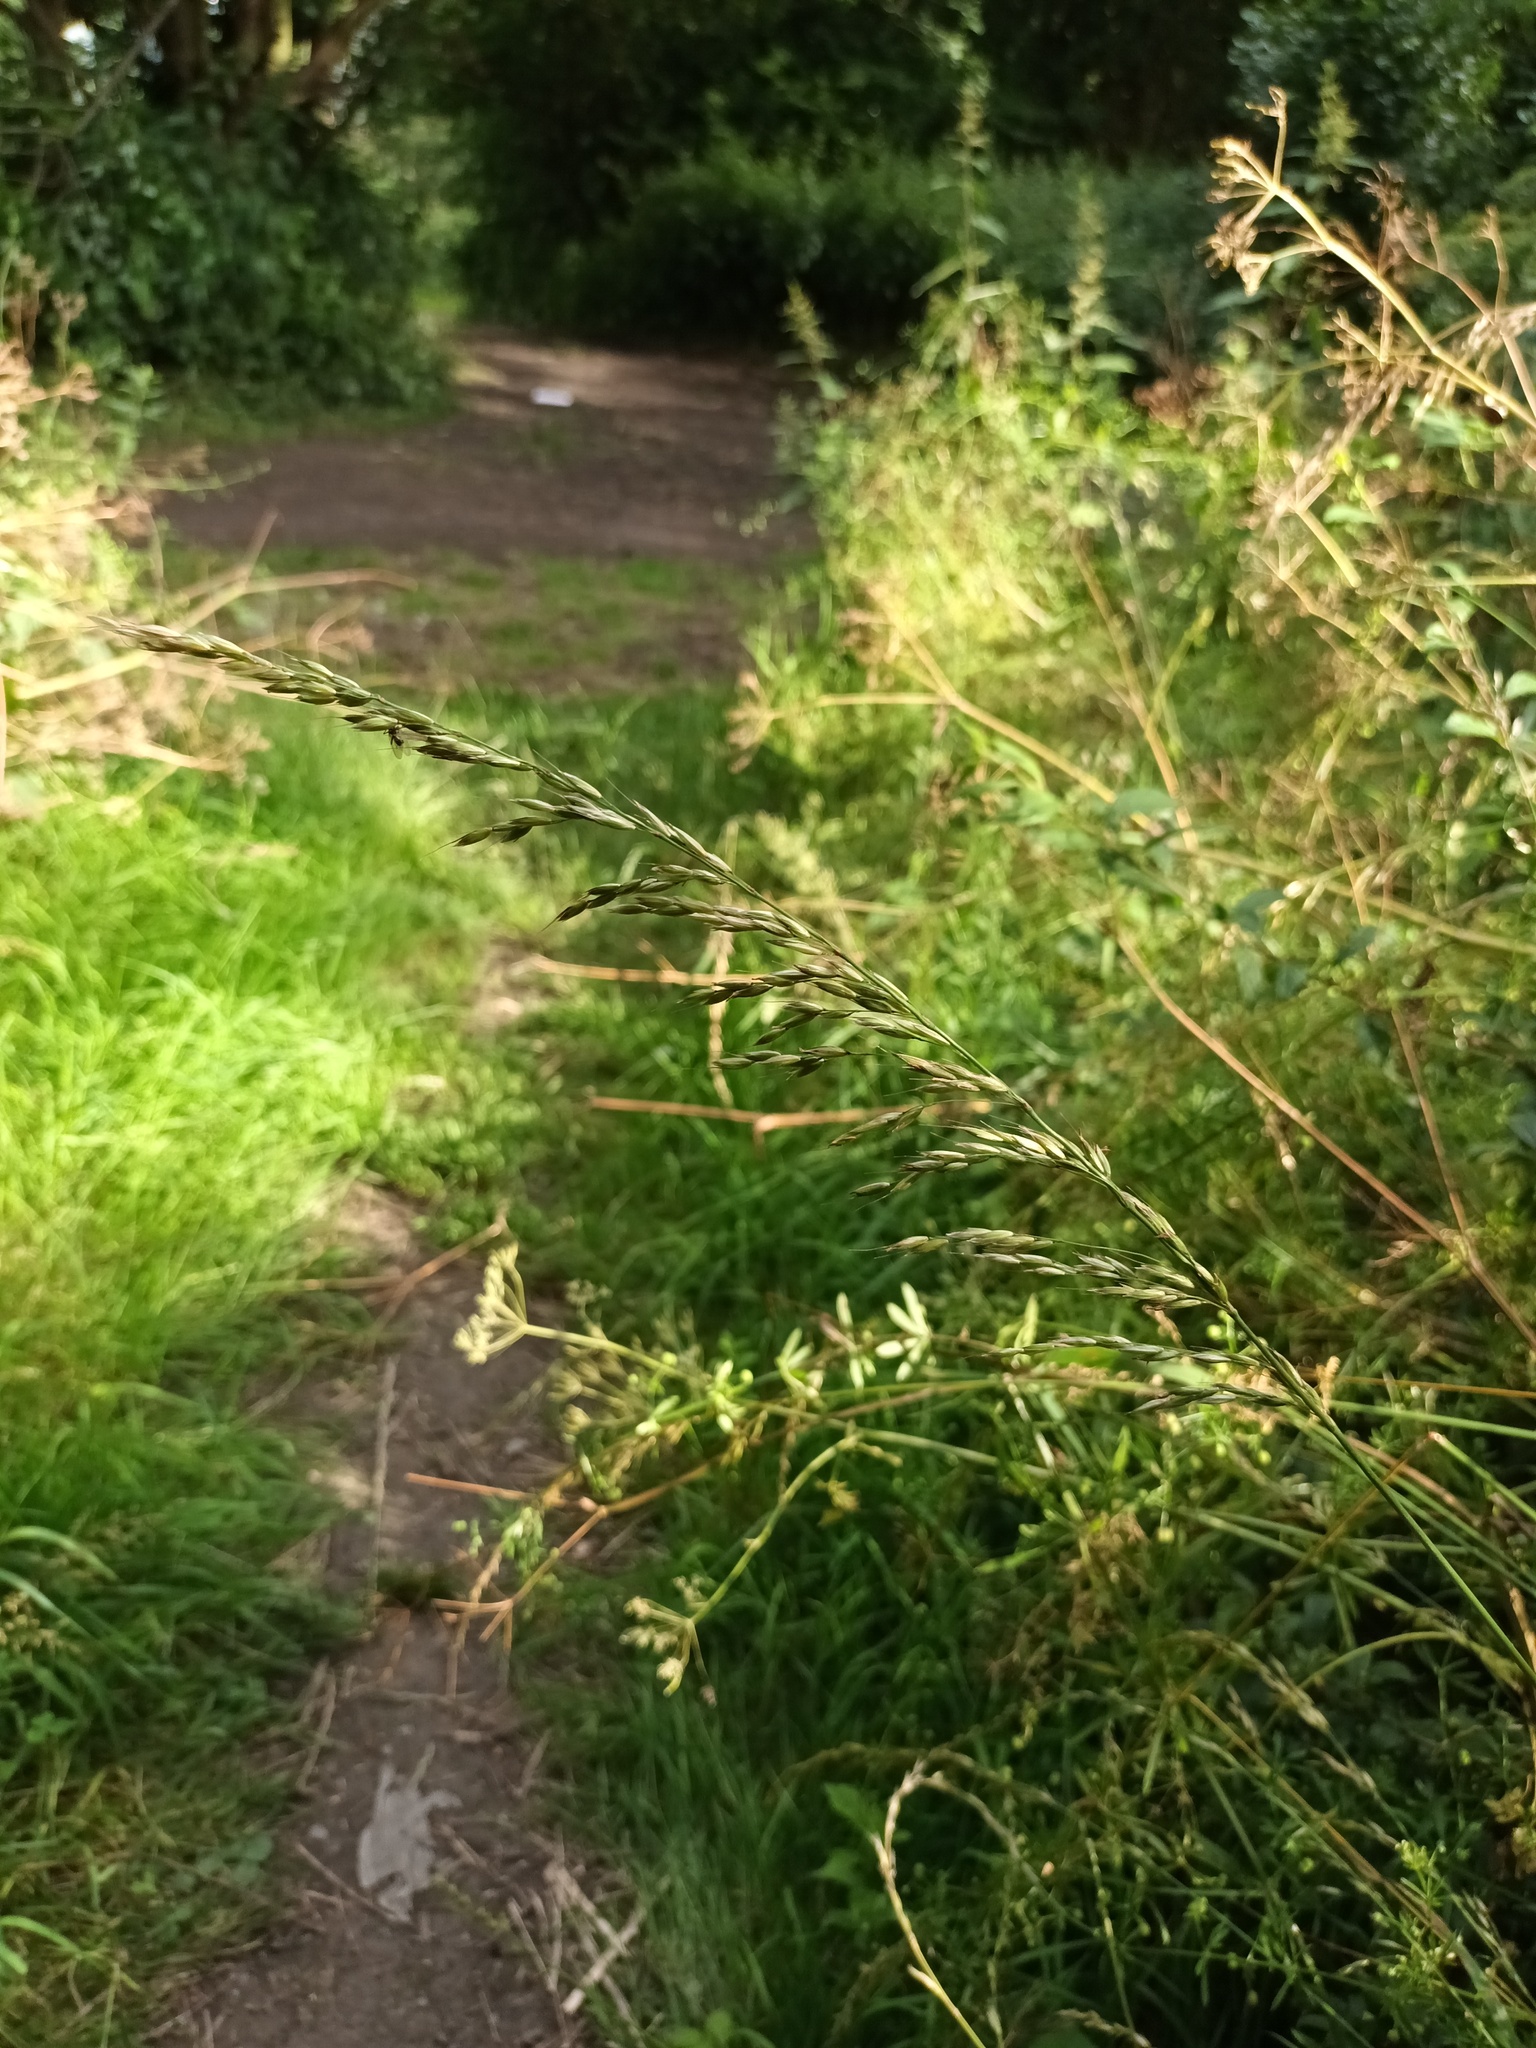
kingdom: Plantae
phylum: Tracheophyta
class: Liliopsida
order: Poales
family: Poaceae
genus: Arrhenatherum
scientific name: Arrhenatherum elatius
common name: Tall oatgrass
